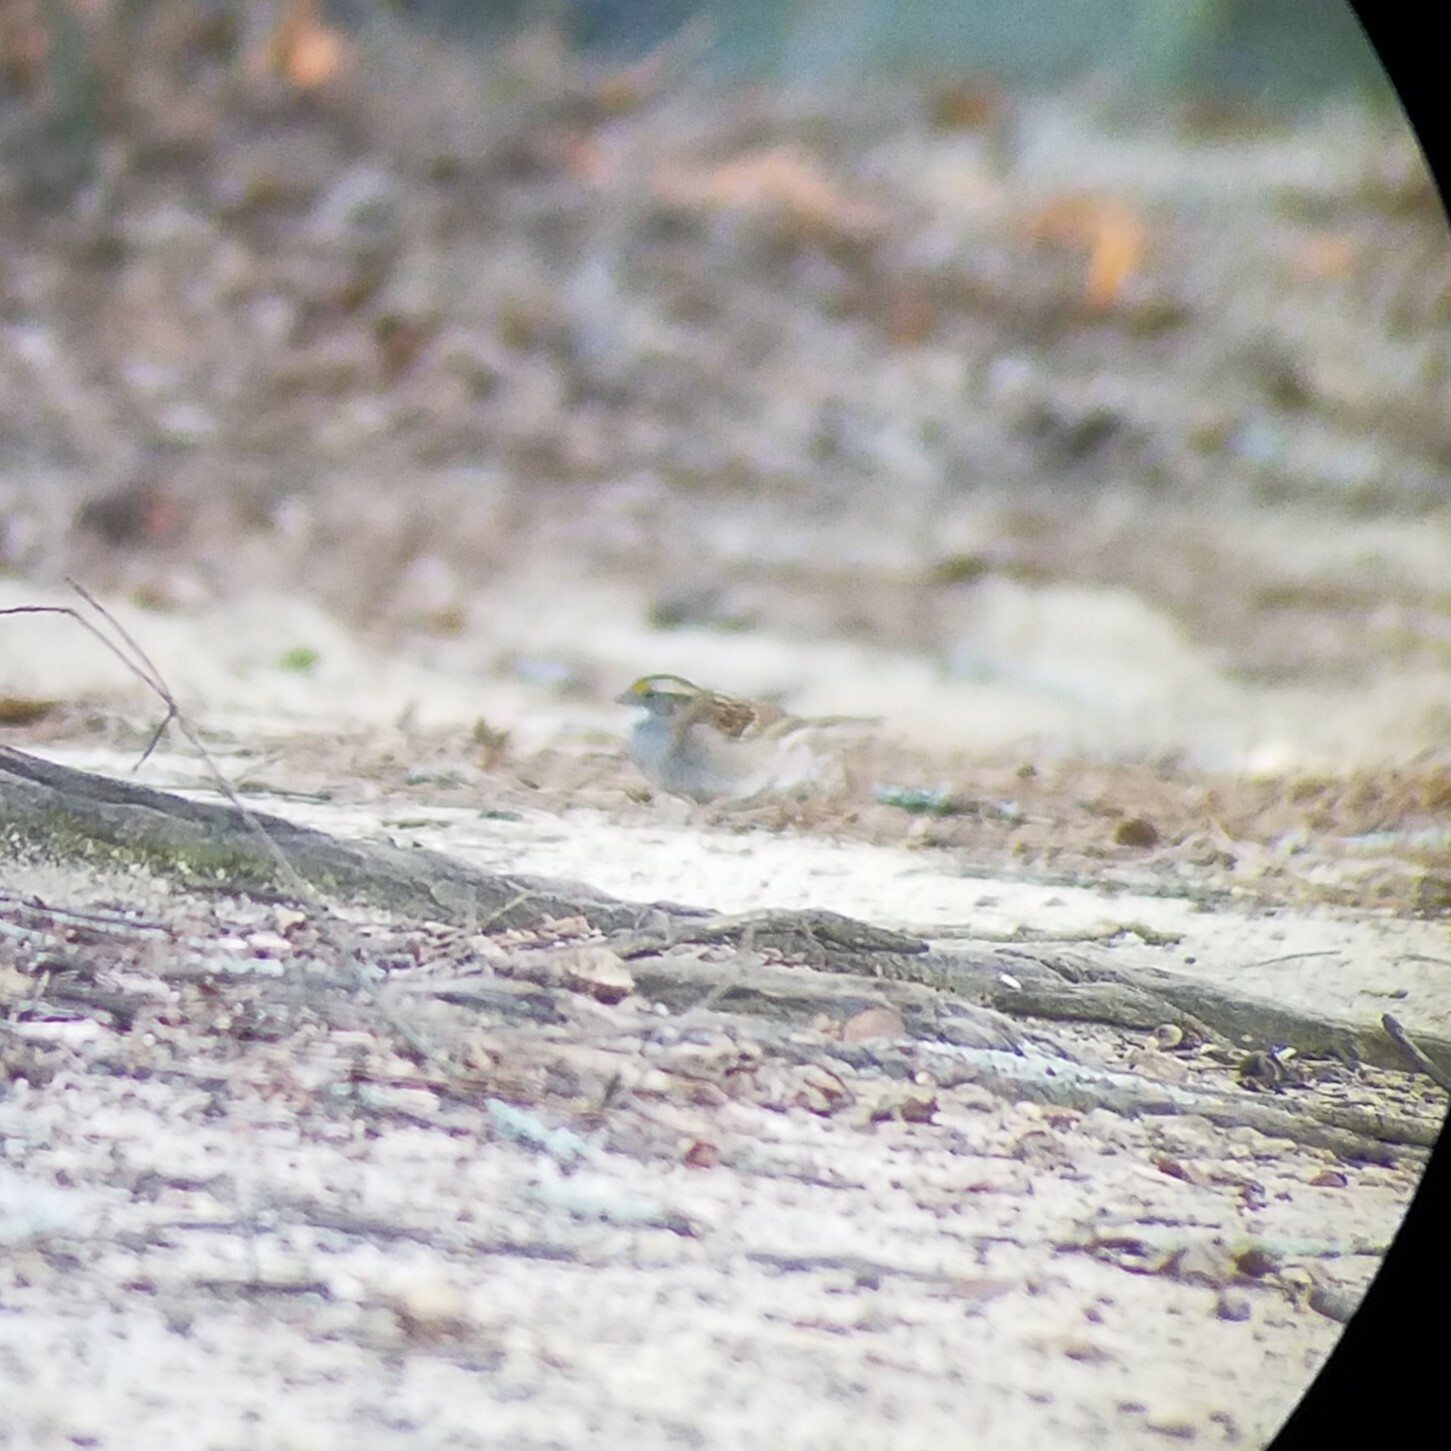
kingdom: Animalia
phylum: Chordata
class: Aves
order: Passeriformes
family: Passerellidae
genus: Zonotrichia
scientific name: Zonotrichia albicollis
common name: White-throated sparrow
